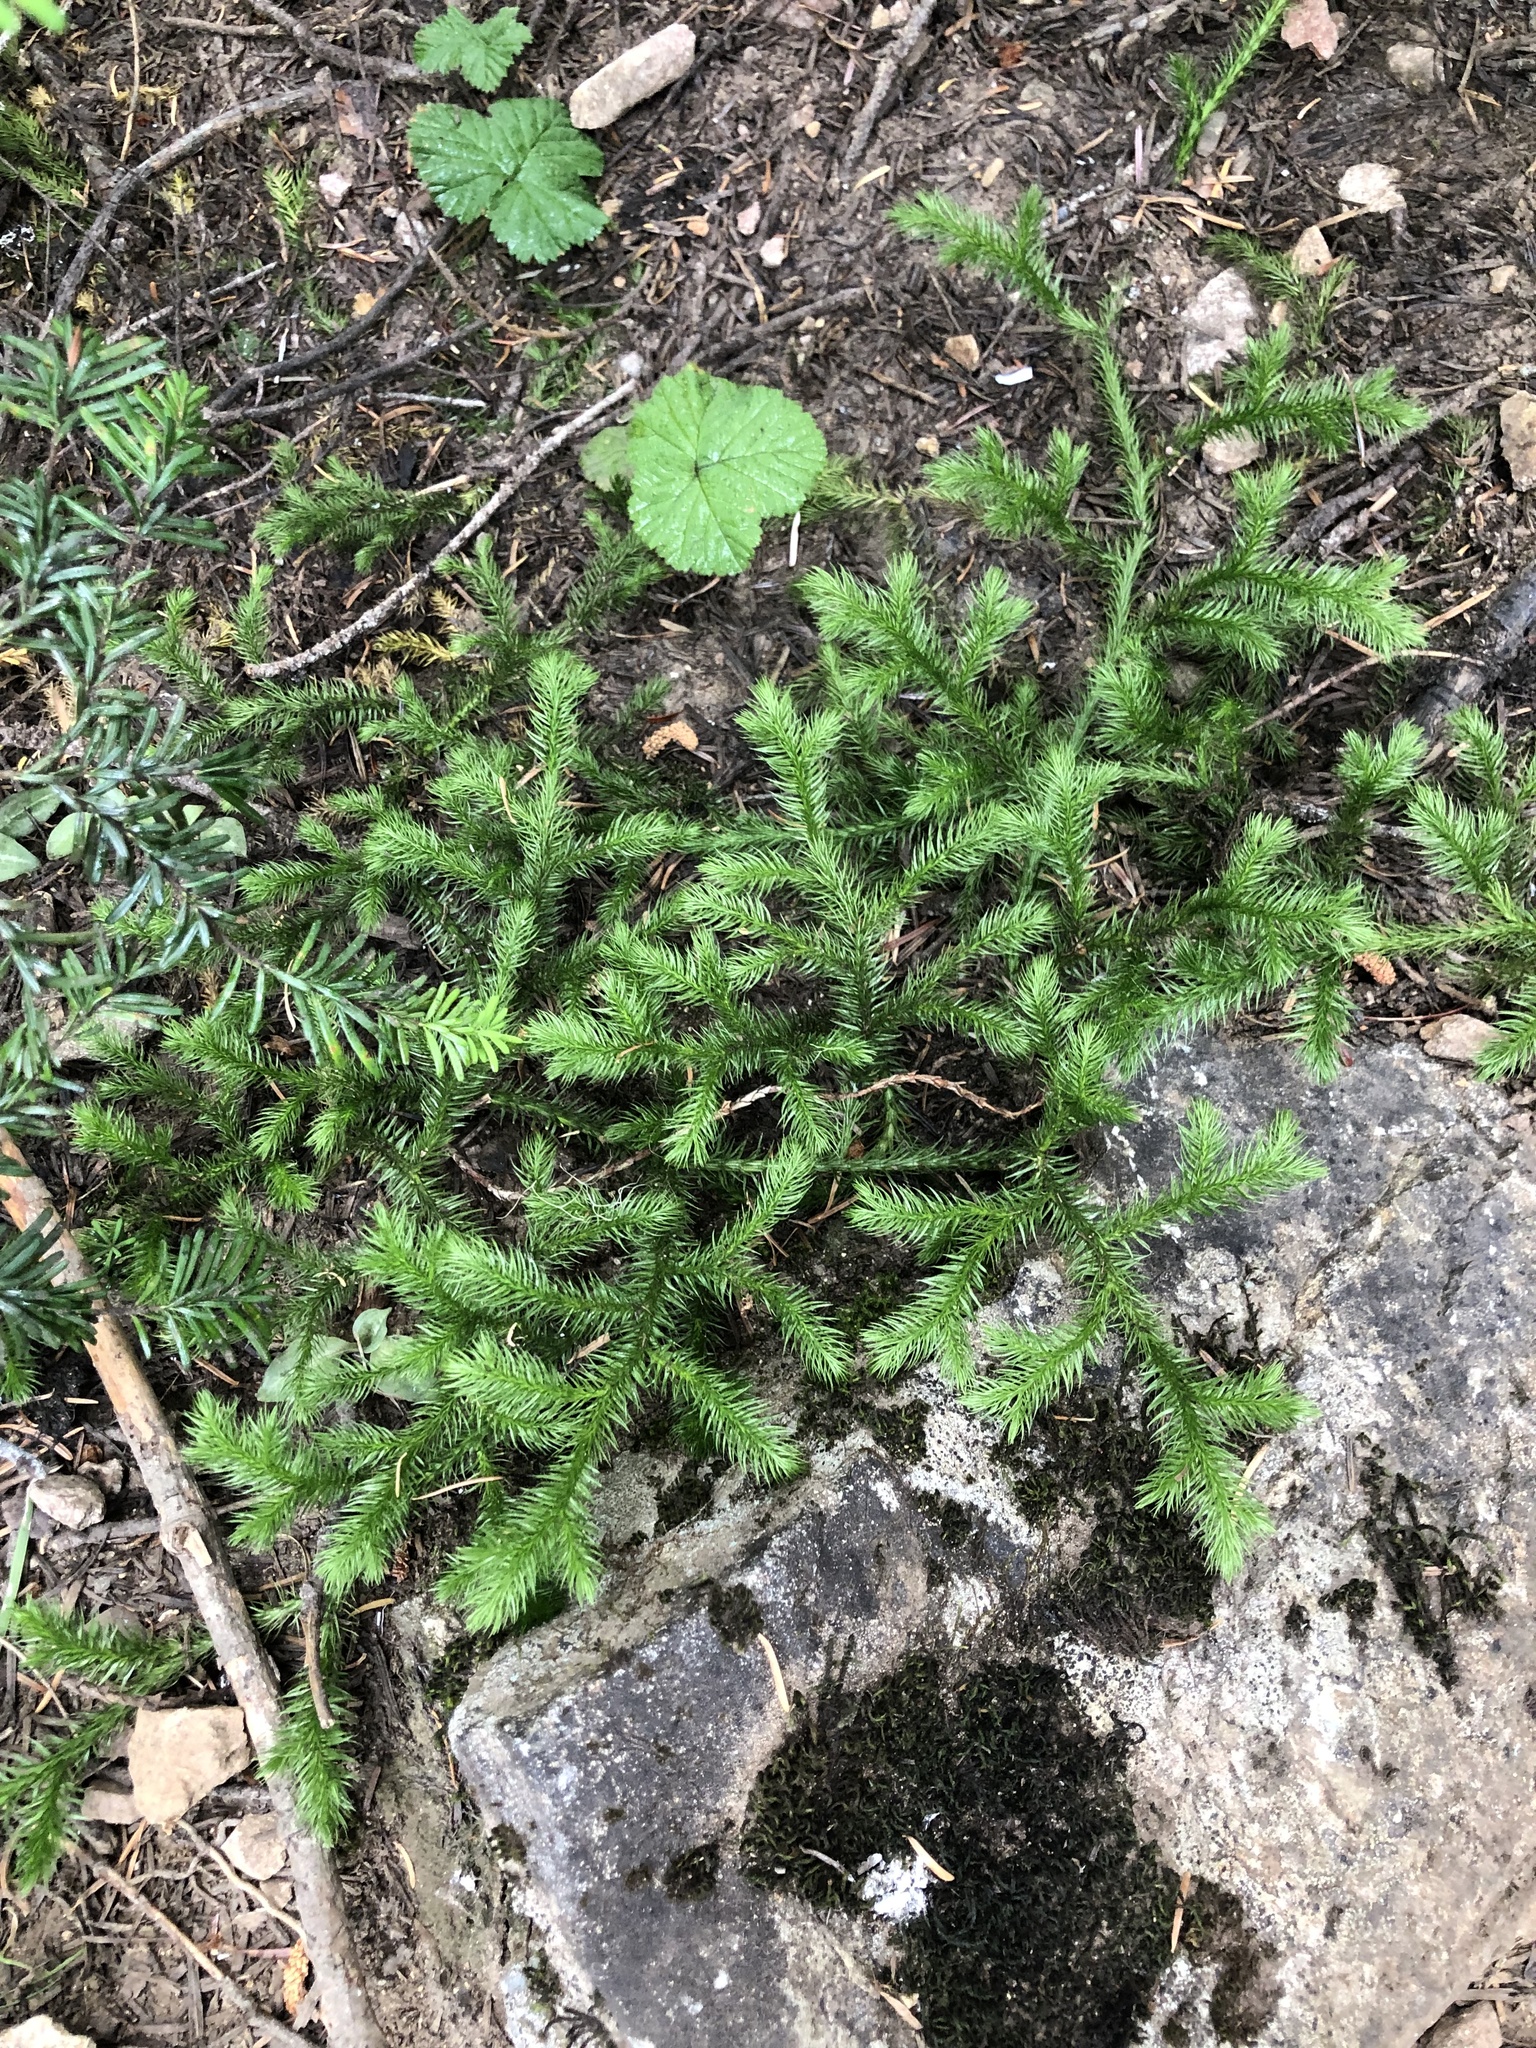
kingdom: Plantae
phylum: Tracheophyta
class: Lycopodiopsida
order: Lycopodiales
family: Lycopodiaceae
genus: Lycopodium
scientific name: Lycopodium clavatum
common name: Stag's-horn clubmoss
